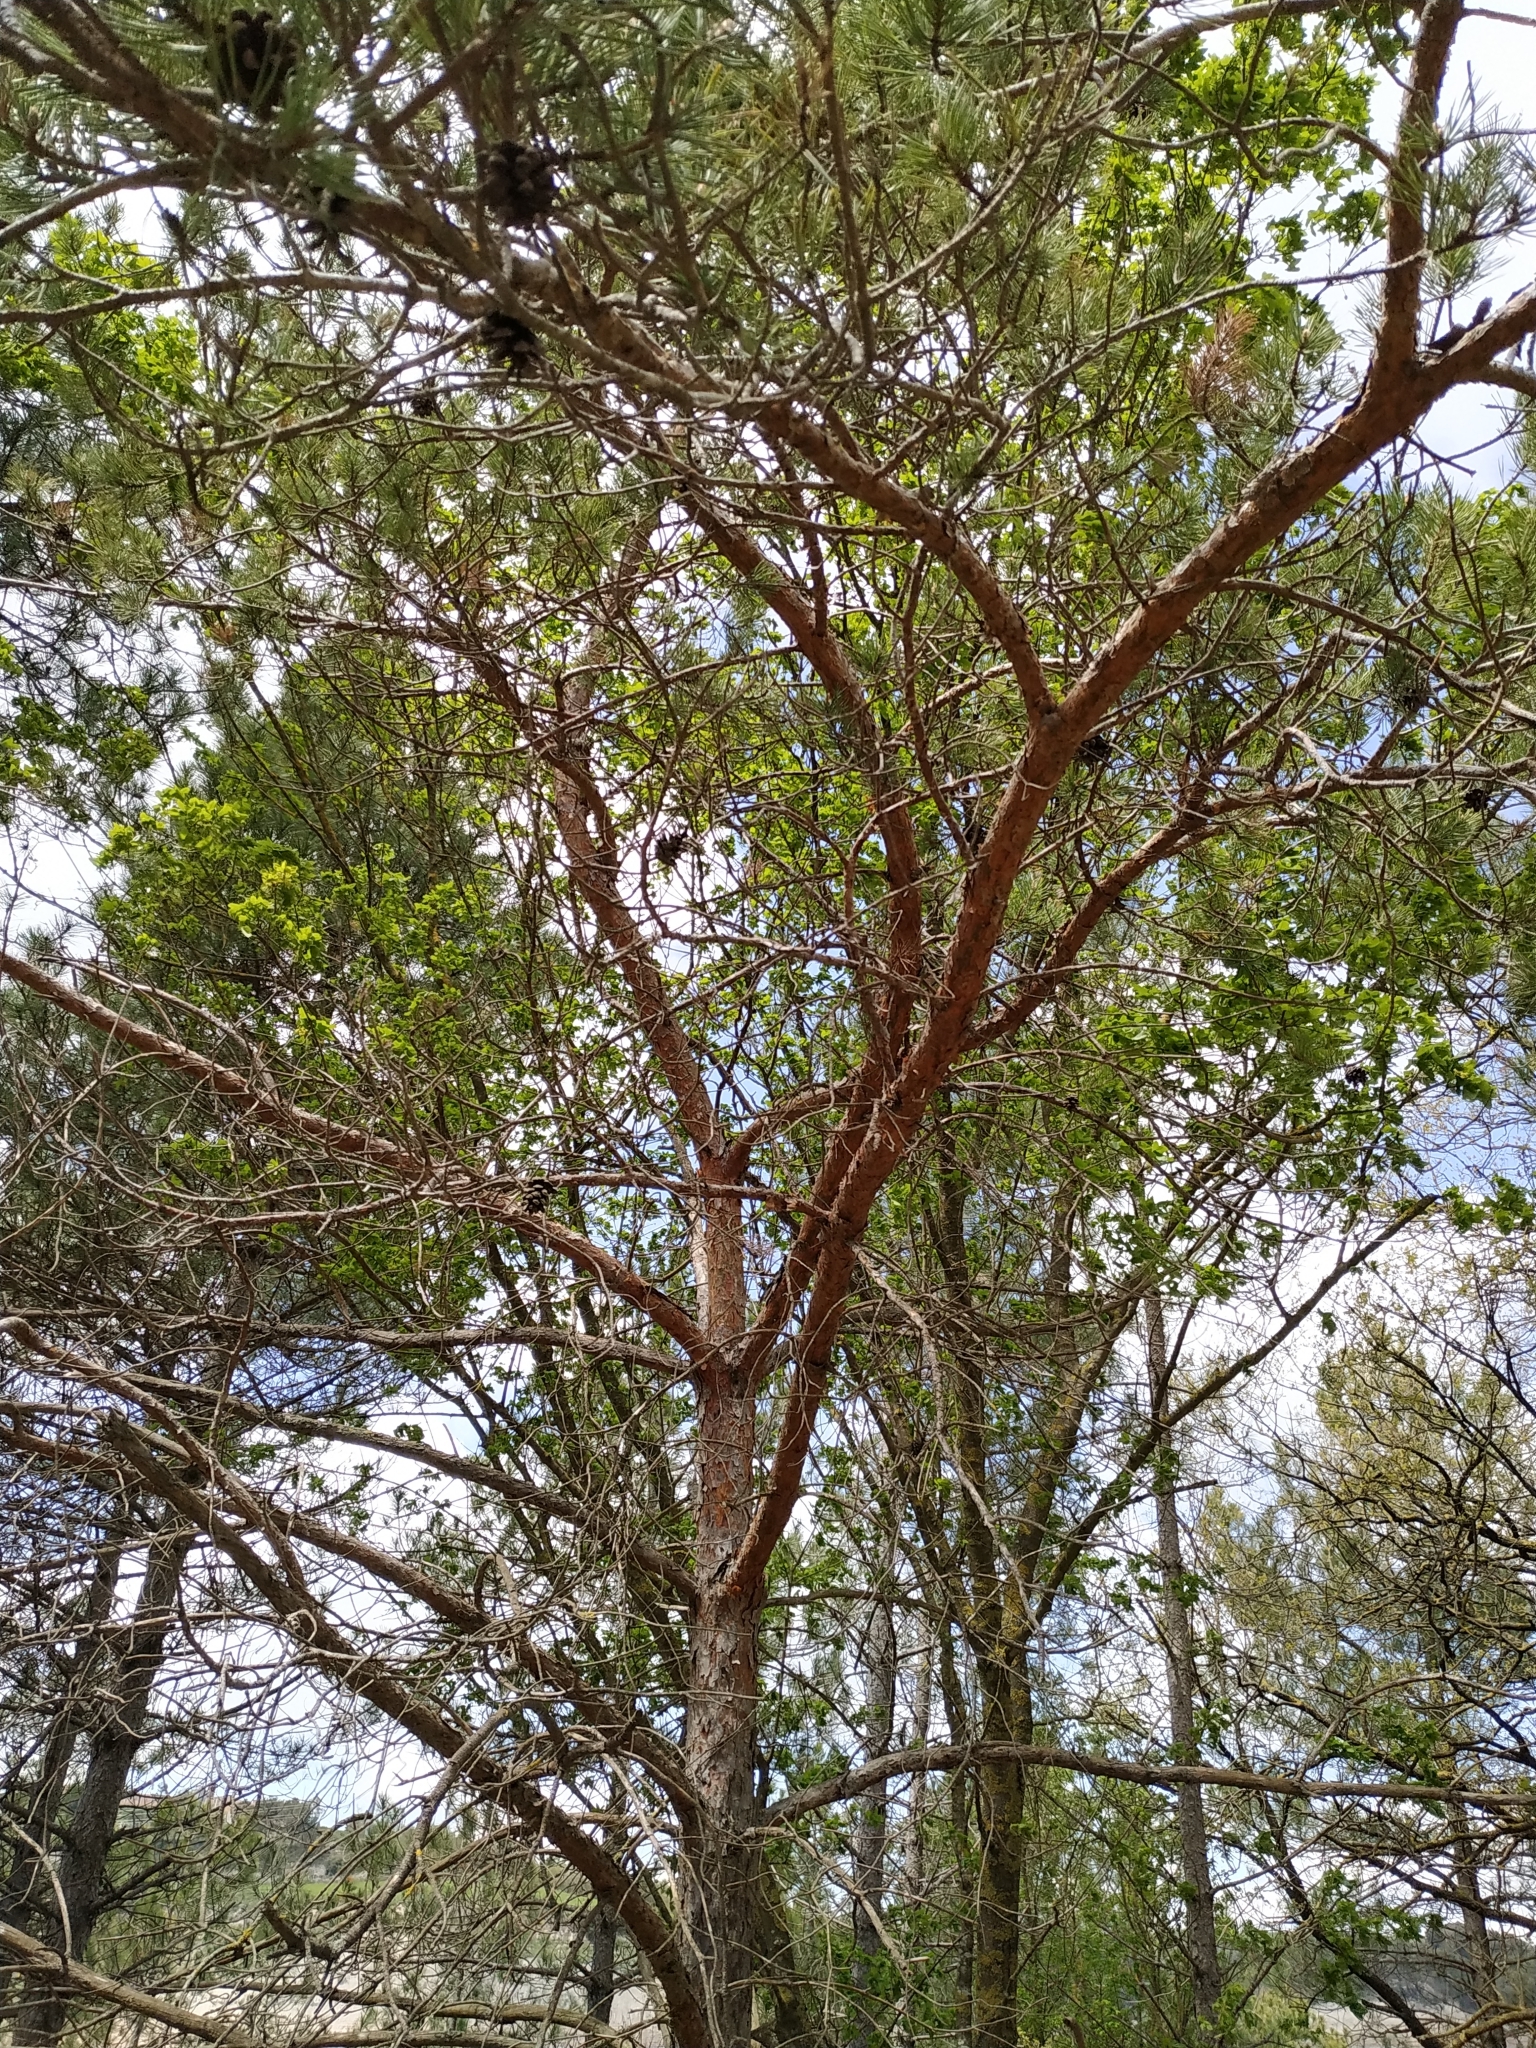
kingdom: Plantae
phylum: Tracheophyta
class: Pinopsida
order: Pinales
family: Pinaceae
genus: Pinus
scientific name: Pinus sylvestris
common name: Scots pine
